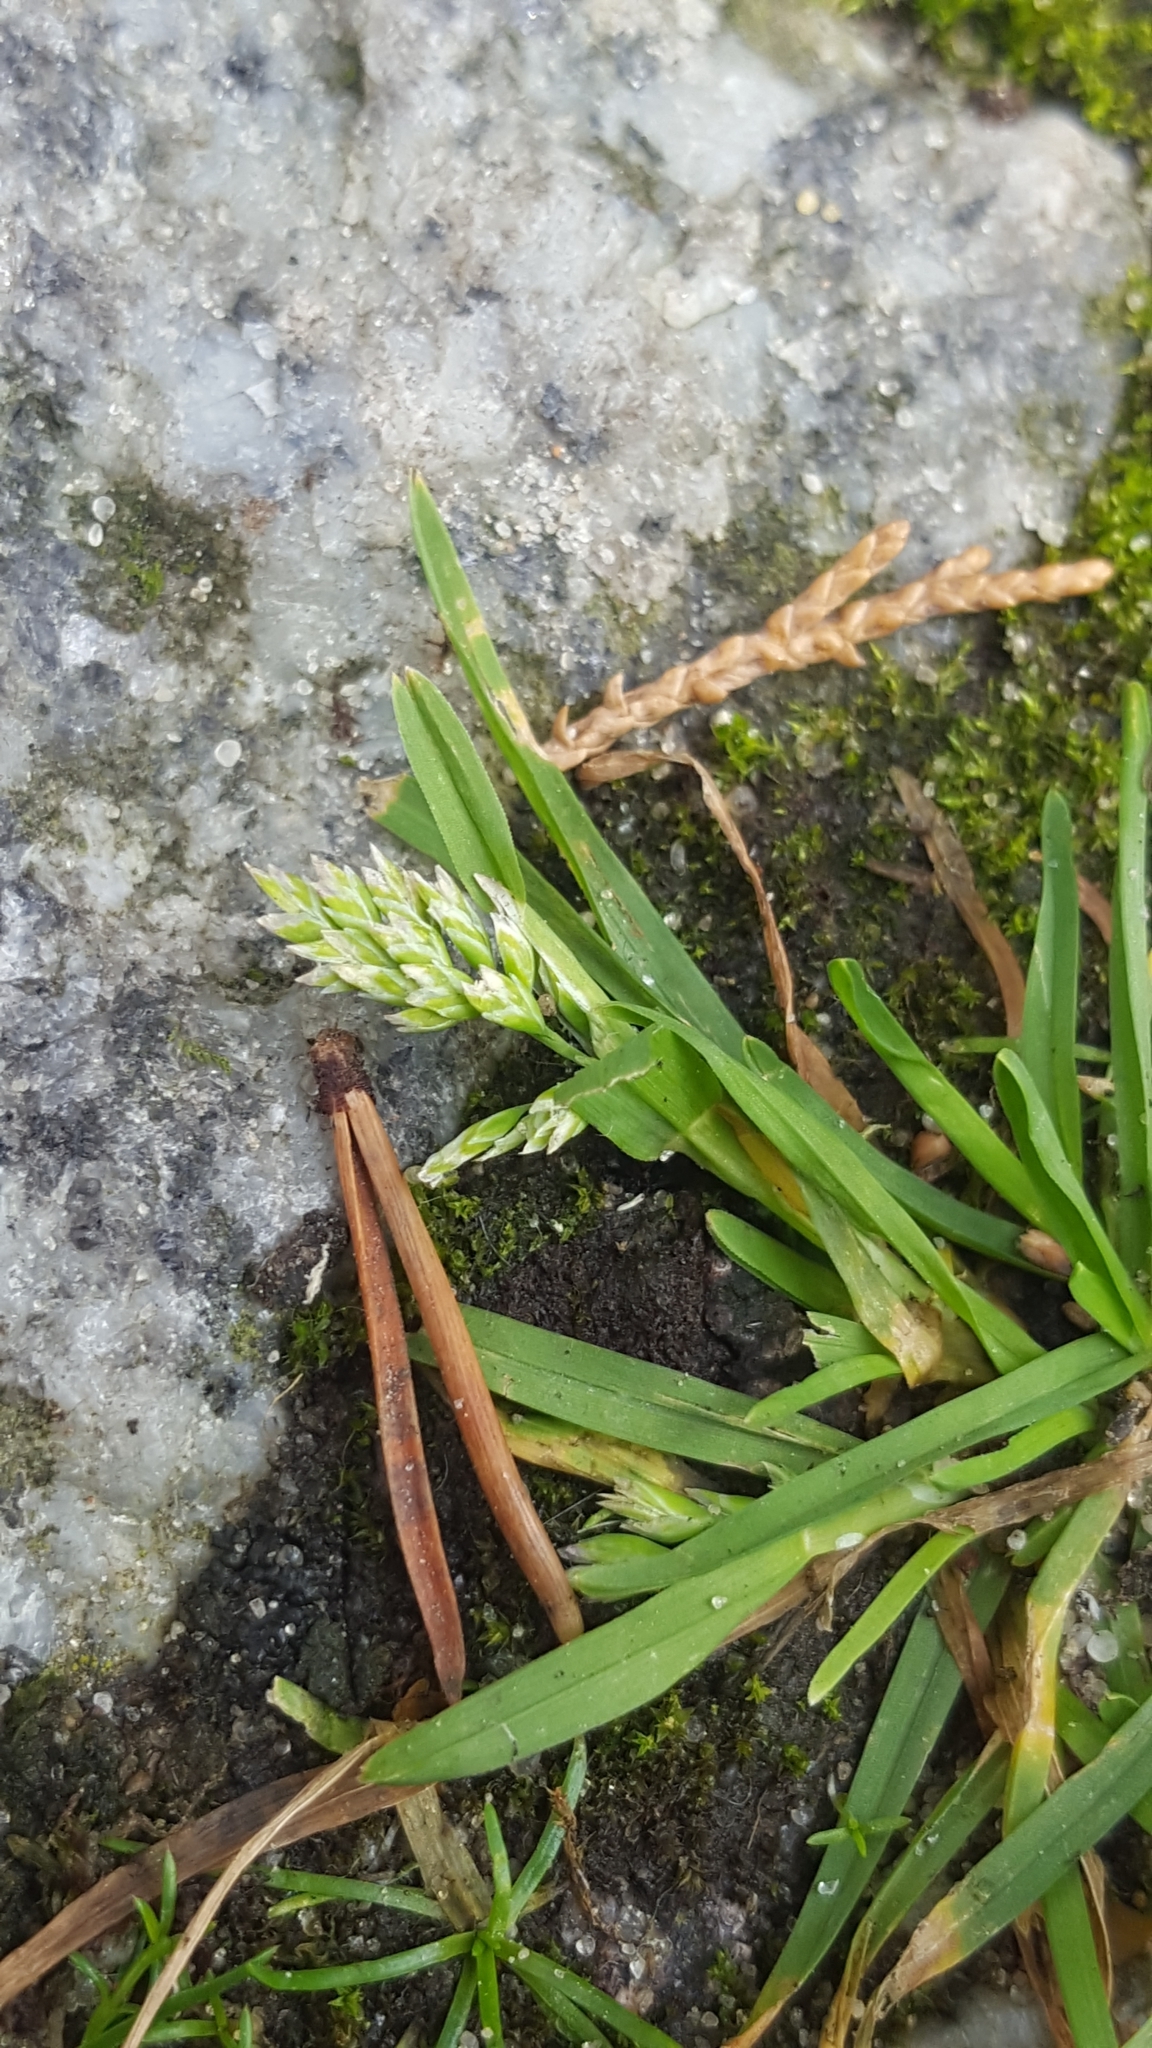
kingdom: Plantae
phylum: Tracheophyta
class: Liliopsida
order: Poales
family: Poaceae
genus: Poa
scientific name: Poa annua
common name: Annual bluegrass
